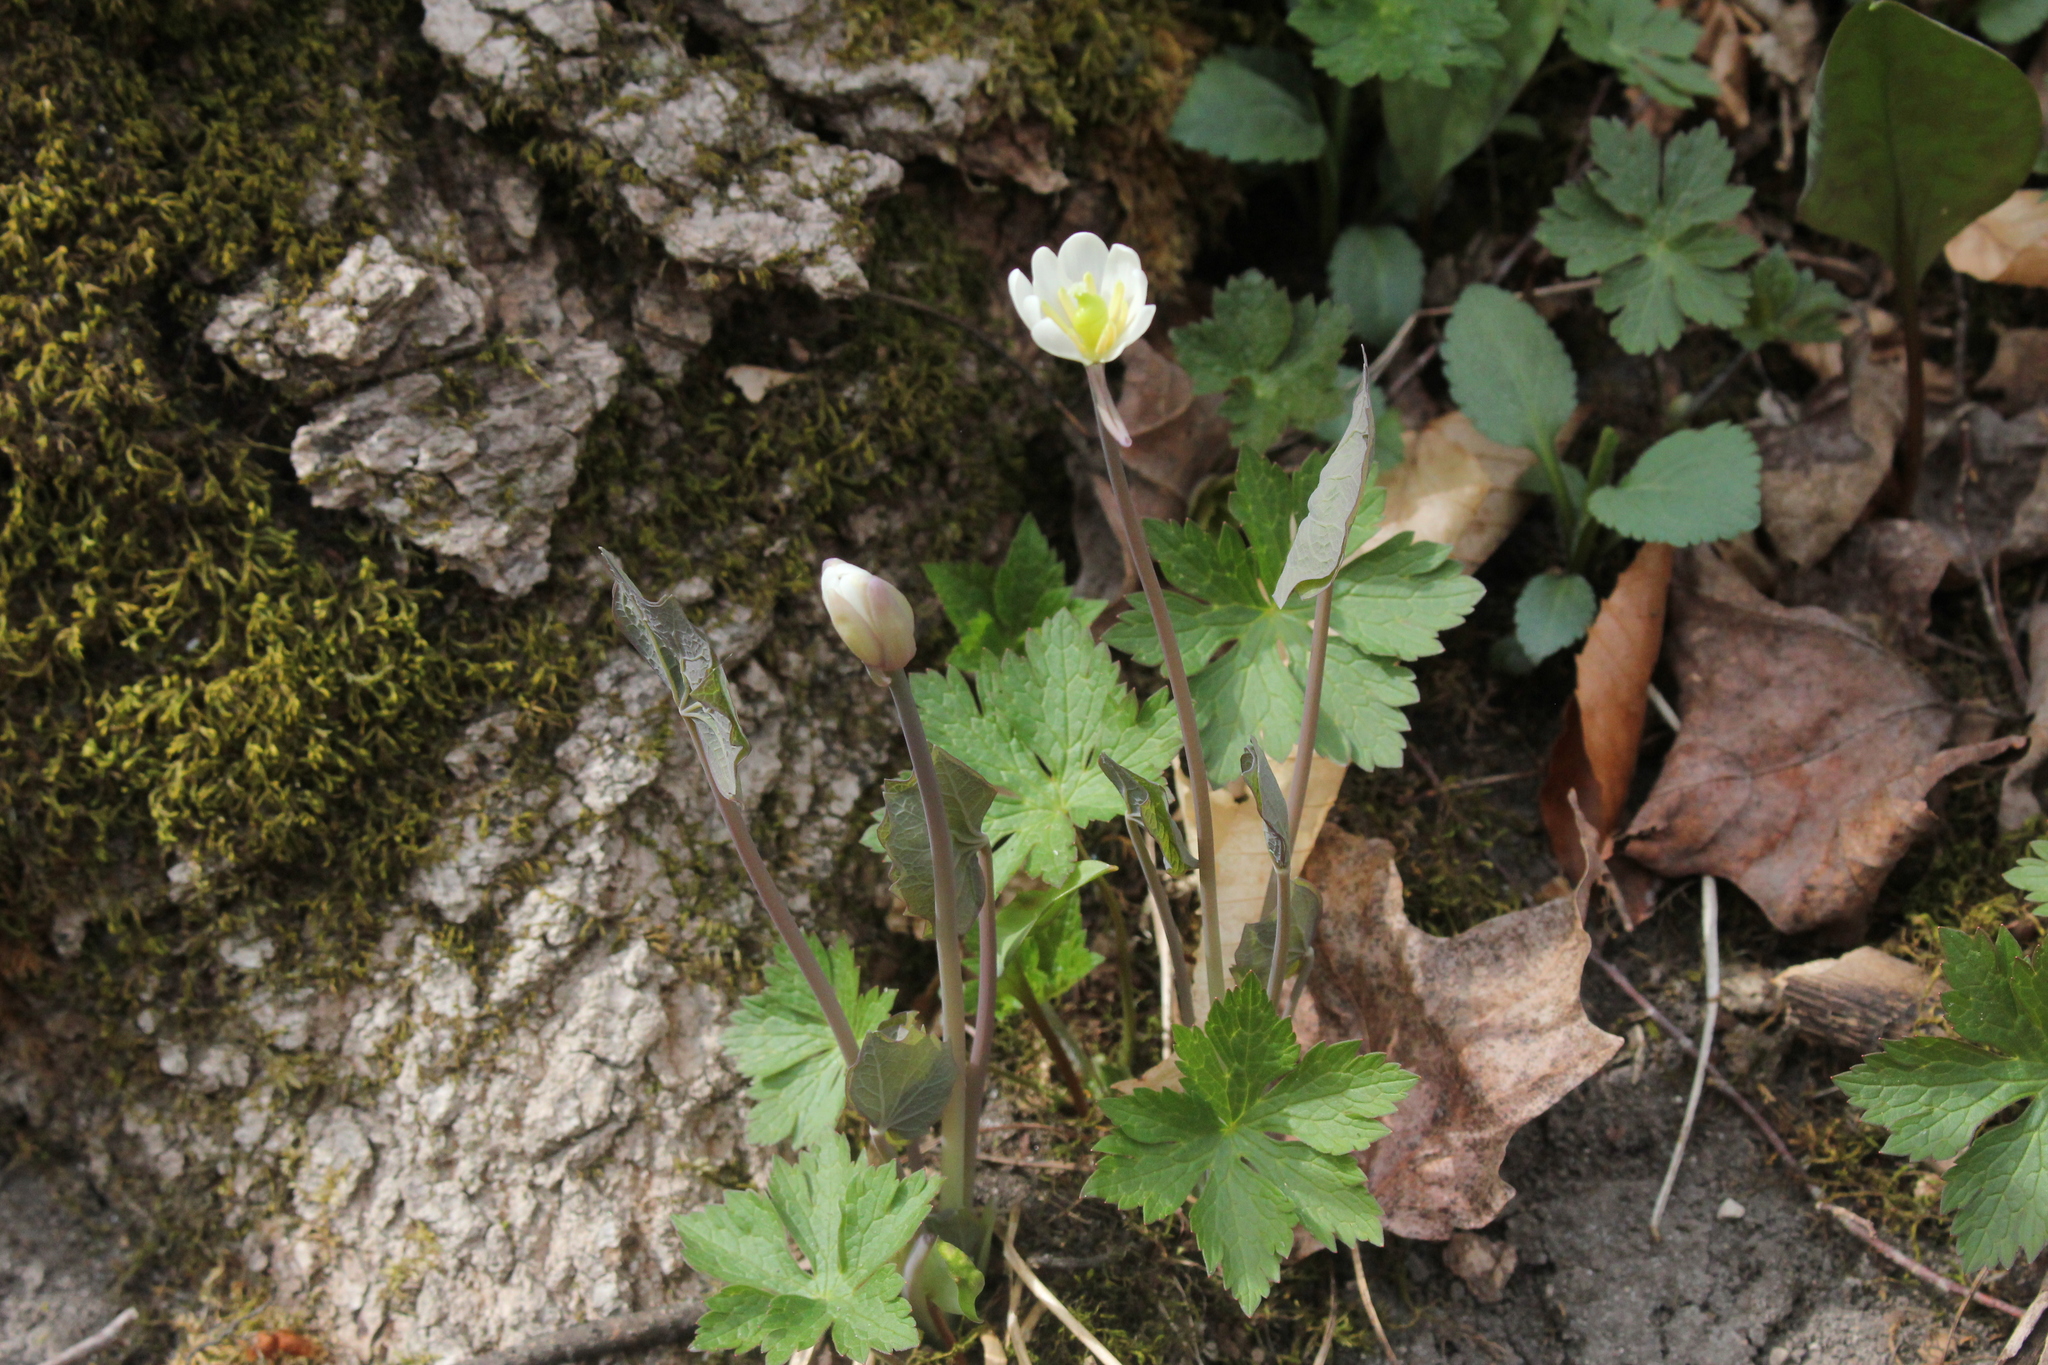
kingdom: Plantae
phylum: Tracheophyta
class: Magnoliopsida
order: Ranunculales
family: Berberidaceae
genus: Jeffersonia
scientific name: Jeffersonia diphylla
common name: Rheumatism-root
